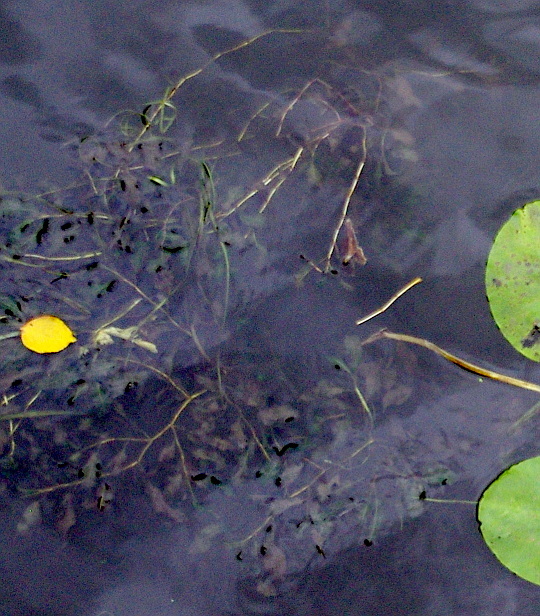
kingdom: Plantae
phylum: Tracheophyta
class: Liliopsida
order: Alismatales
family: Potamogetonaceae
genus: Potamogeton
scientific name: Potamogeton lucens
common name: Shining pondweed
